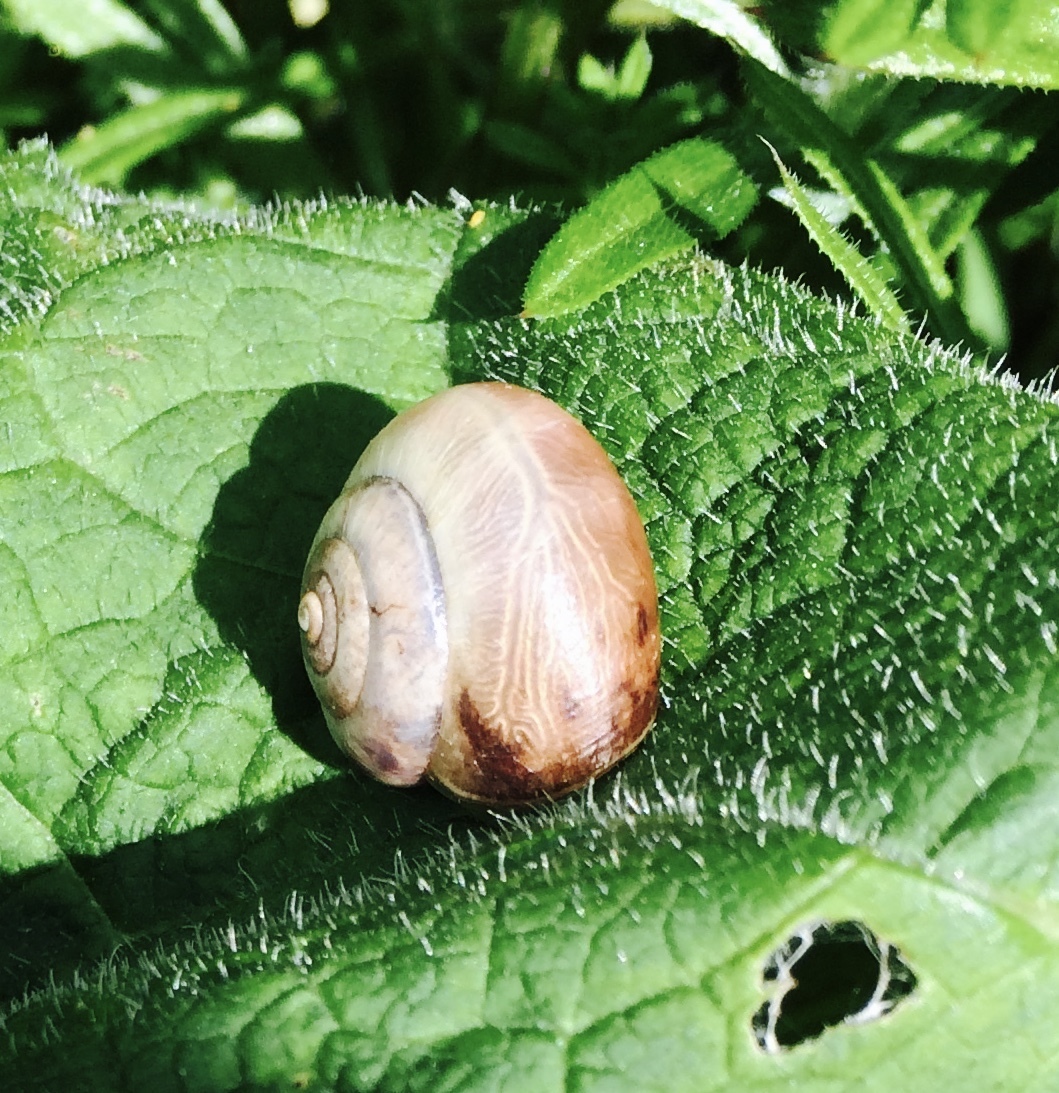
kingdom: Animalia
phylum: Mollusca
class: Gastropoda
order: Stylommatophora
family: Hygromiidae
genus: Monacha
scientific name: Monacha cantiana
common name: Kentish snail
